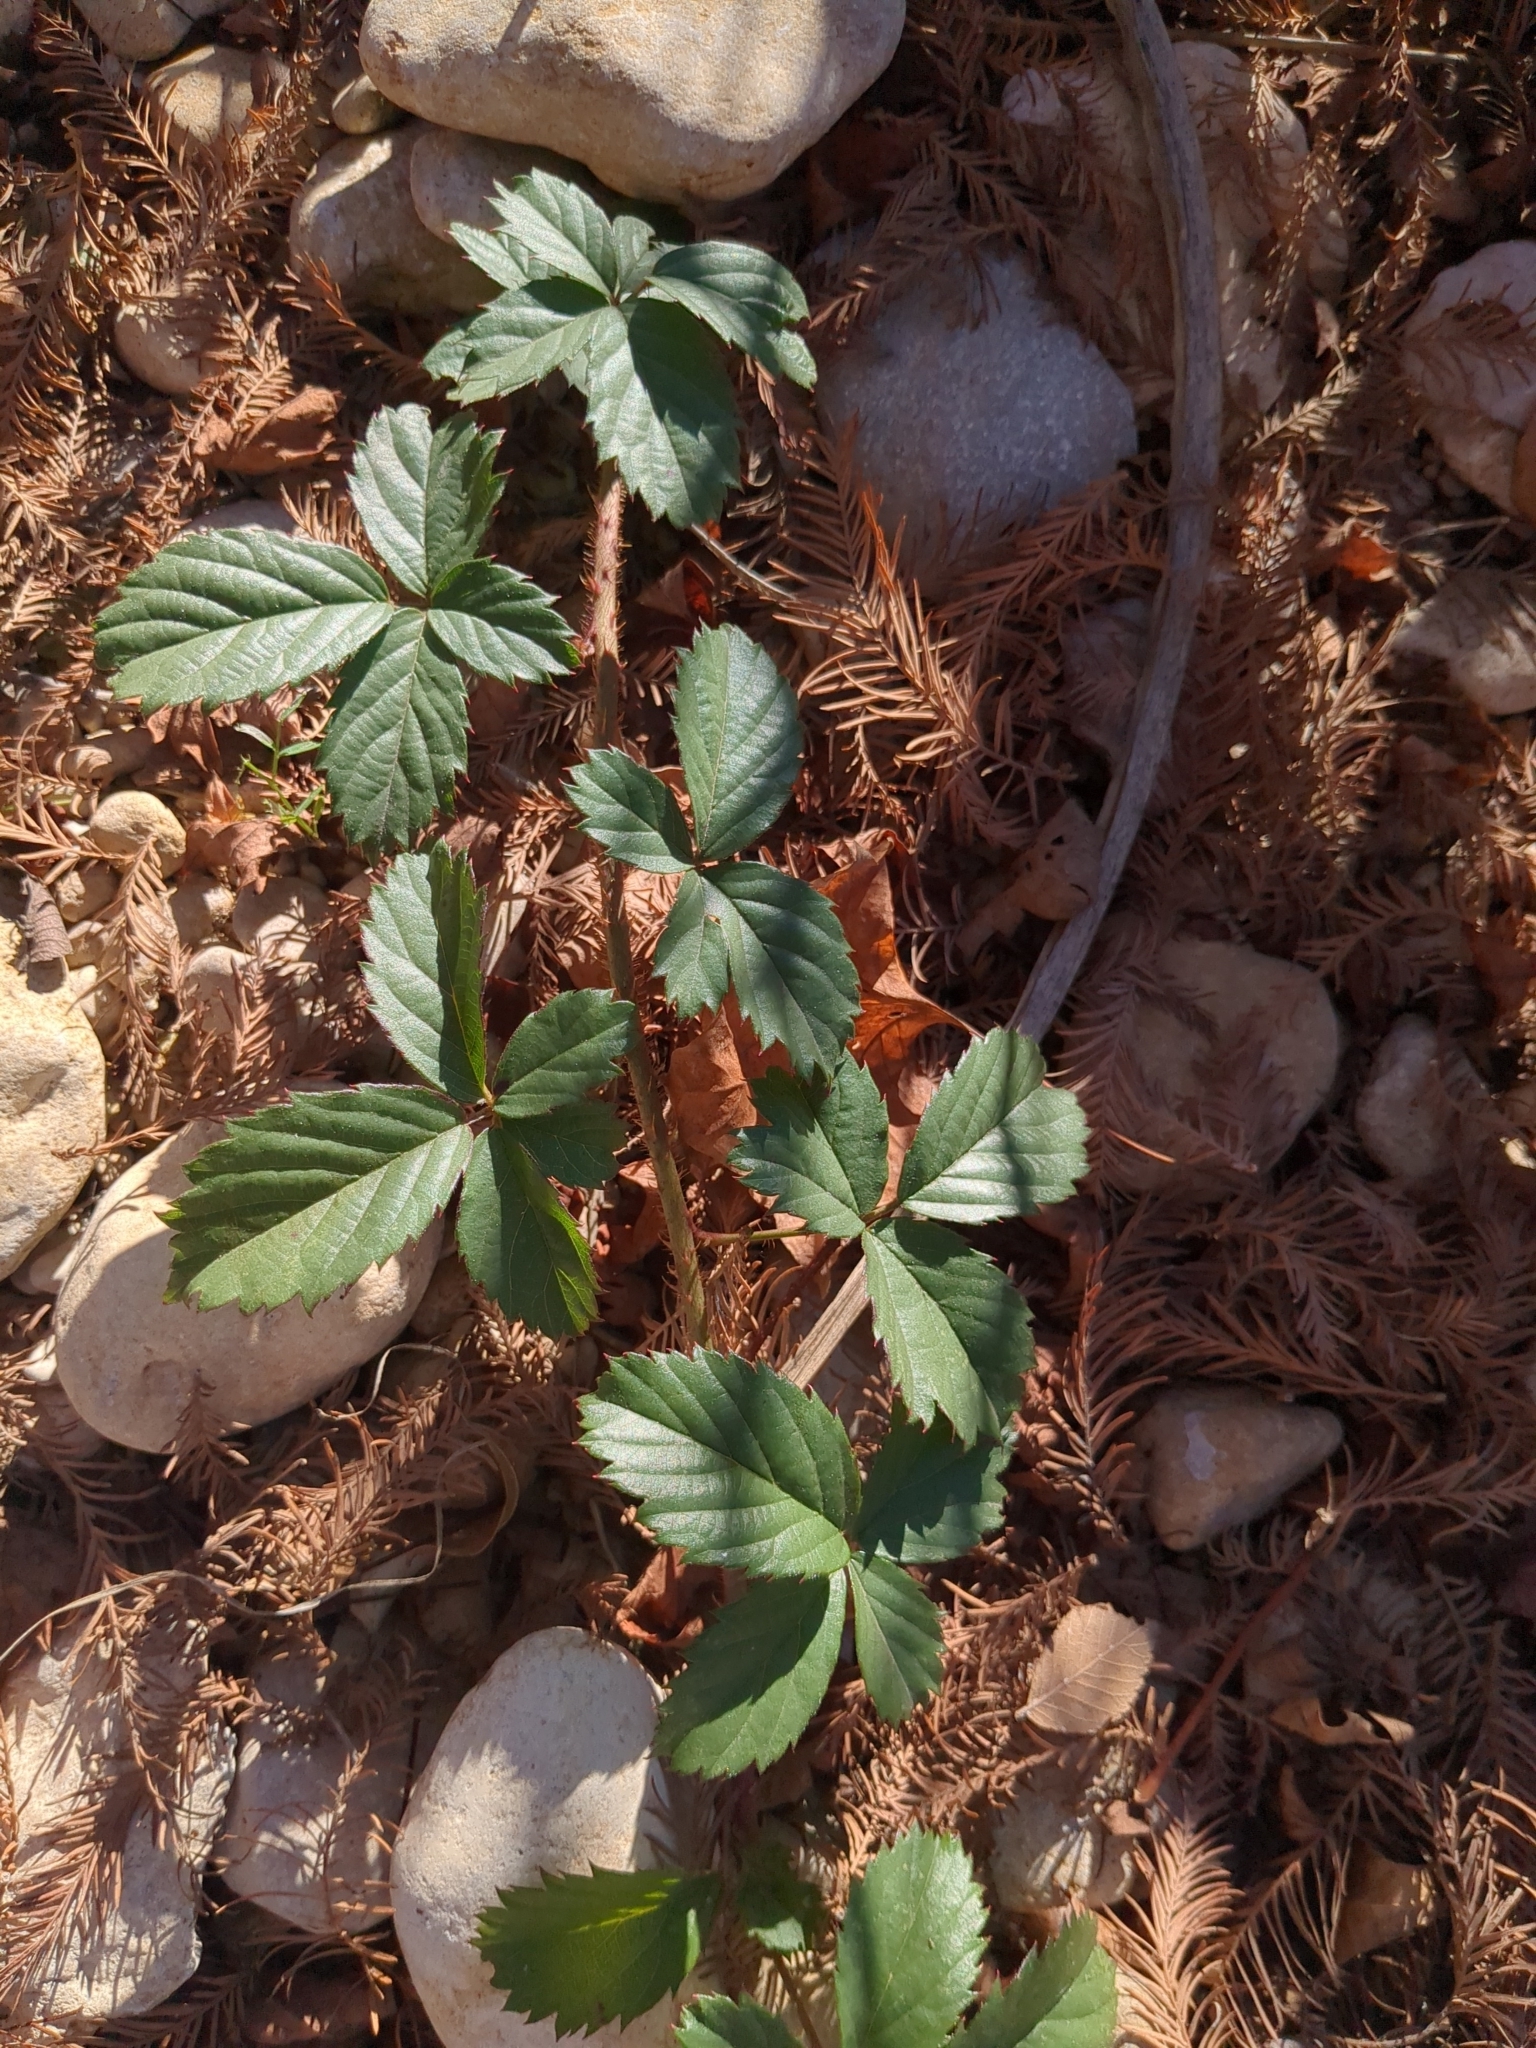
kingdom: Plantae
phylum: Tracheophyta
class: Magnoliopsida
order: Rosales
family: Rosaceae
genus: Rubus
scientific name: Rubus trivialis
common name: Southern dewberry
